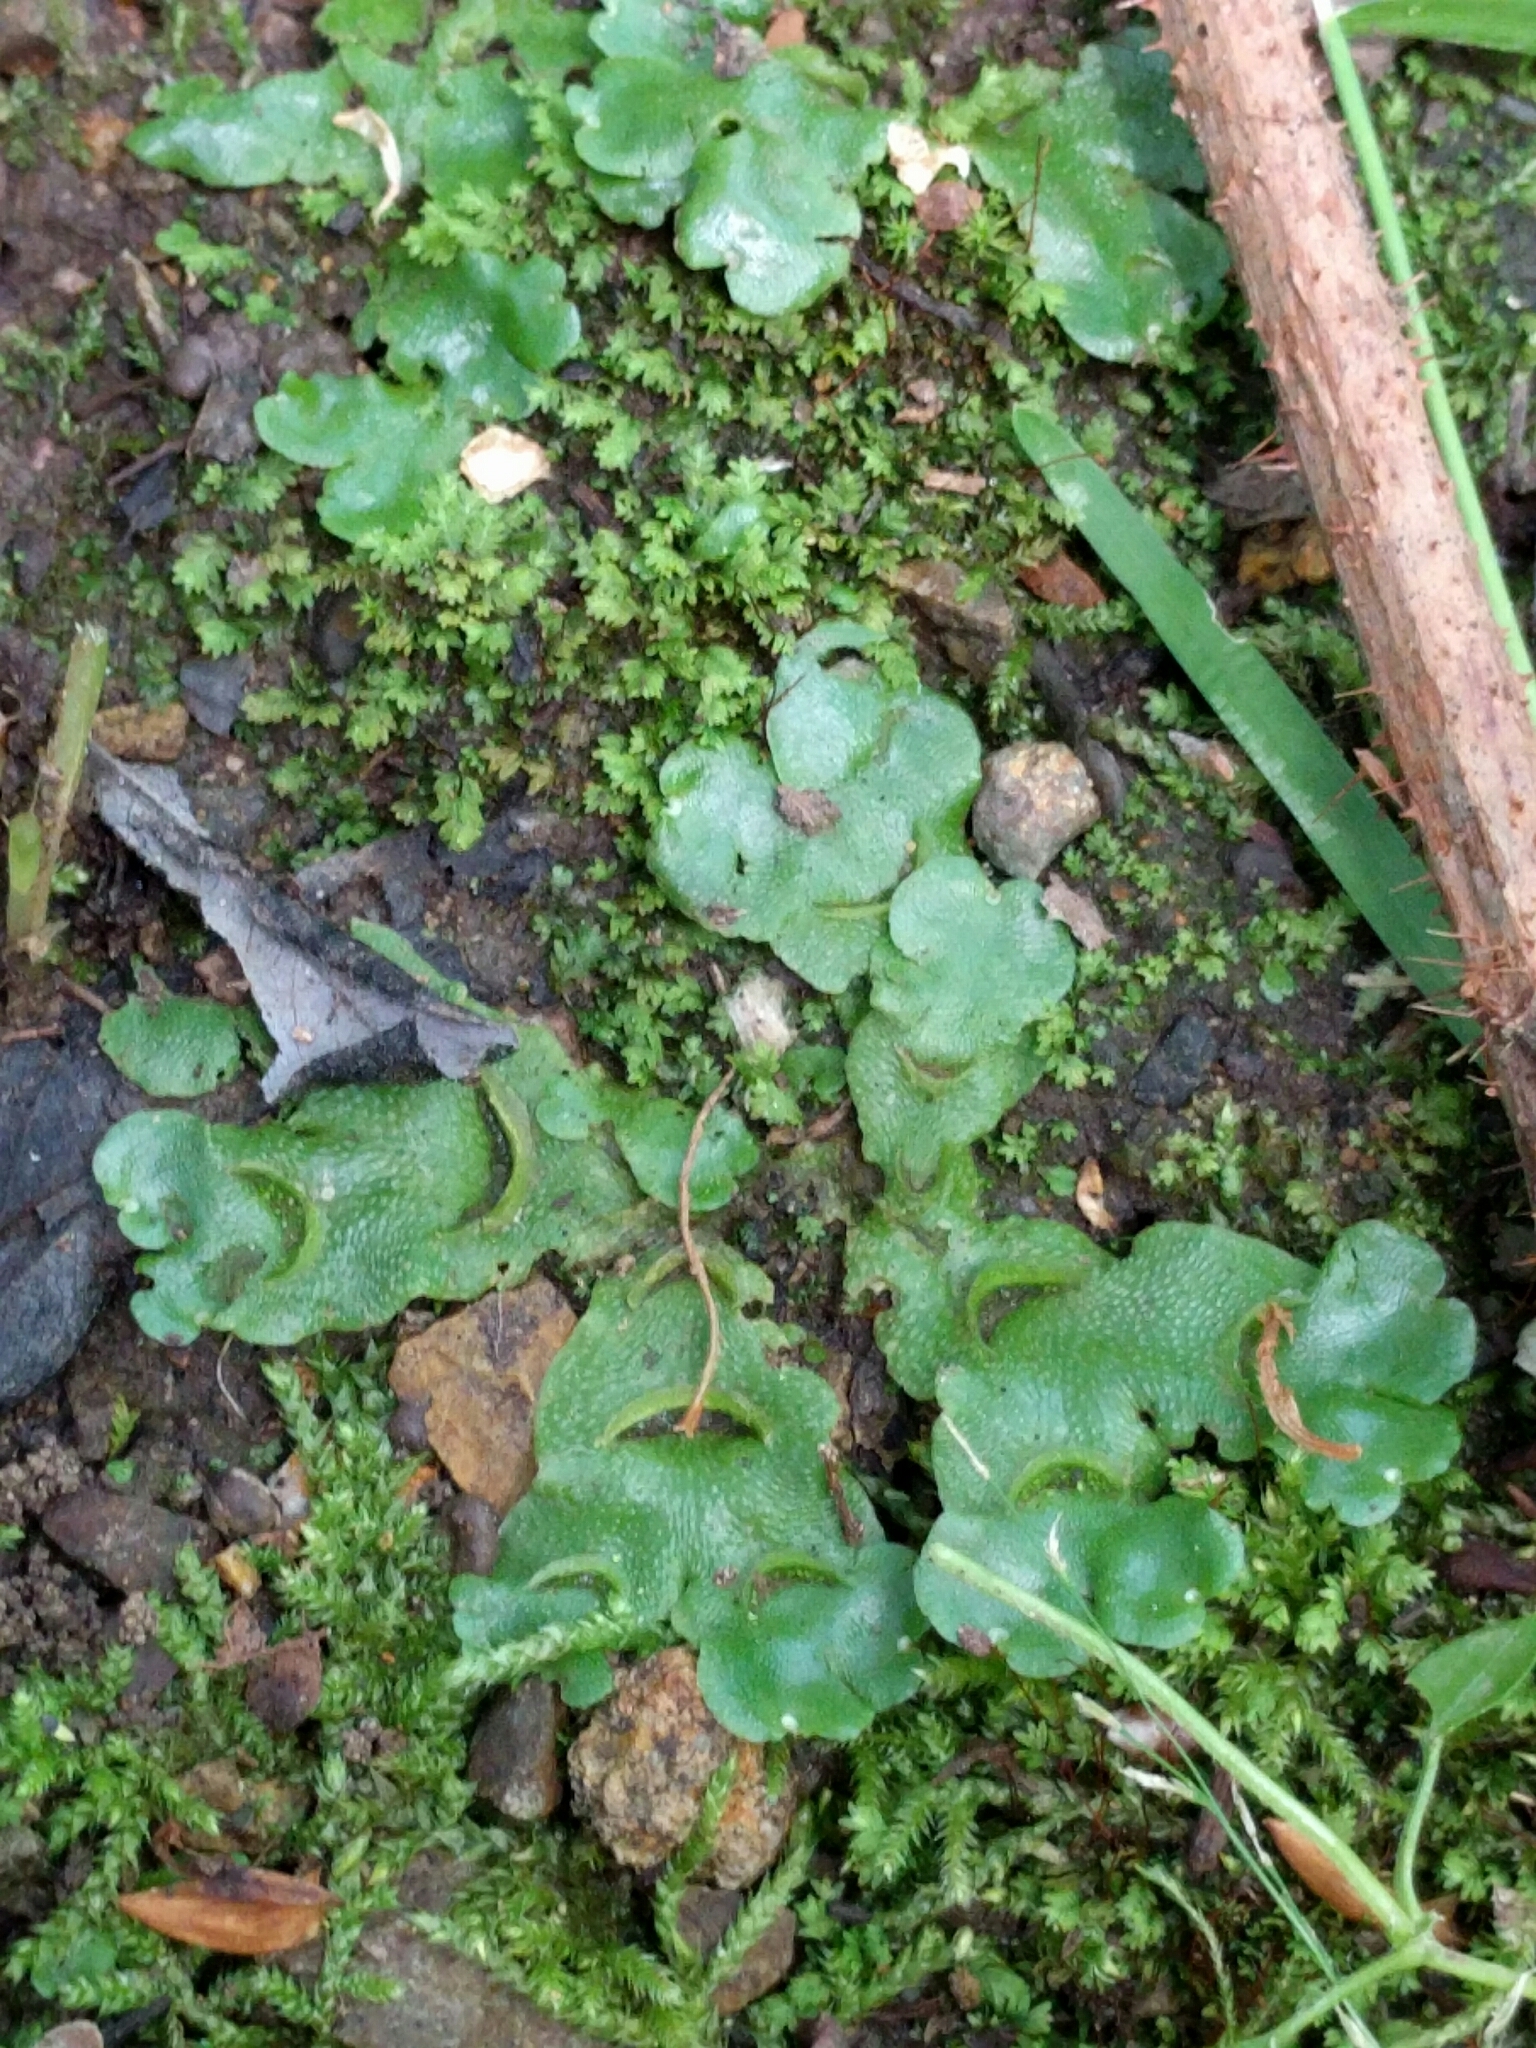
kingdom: Plantae
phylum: Marchantiophyta
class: Marchantiopsida
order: Lunulariales
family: Lunulariaceae
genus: Lunularia
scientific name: Lunularia cruciata
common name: Crescent-cup liverwort
